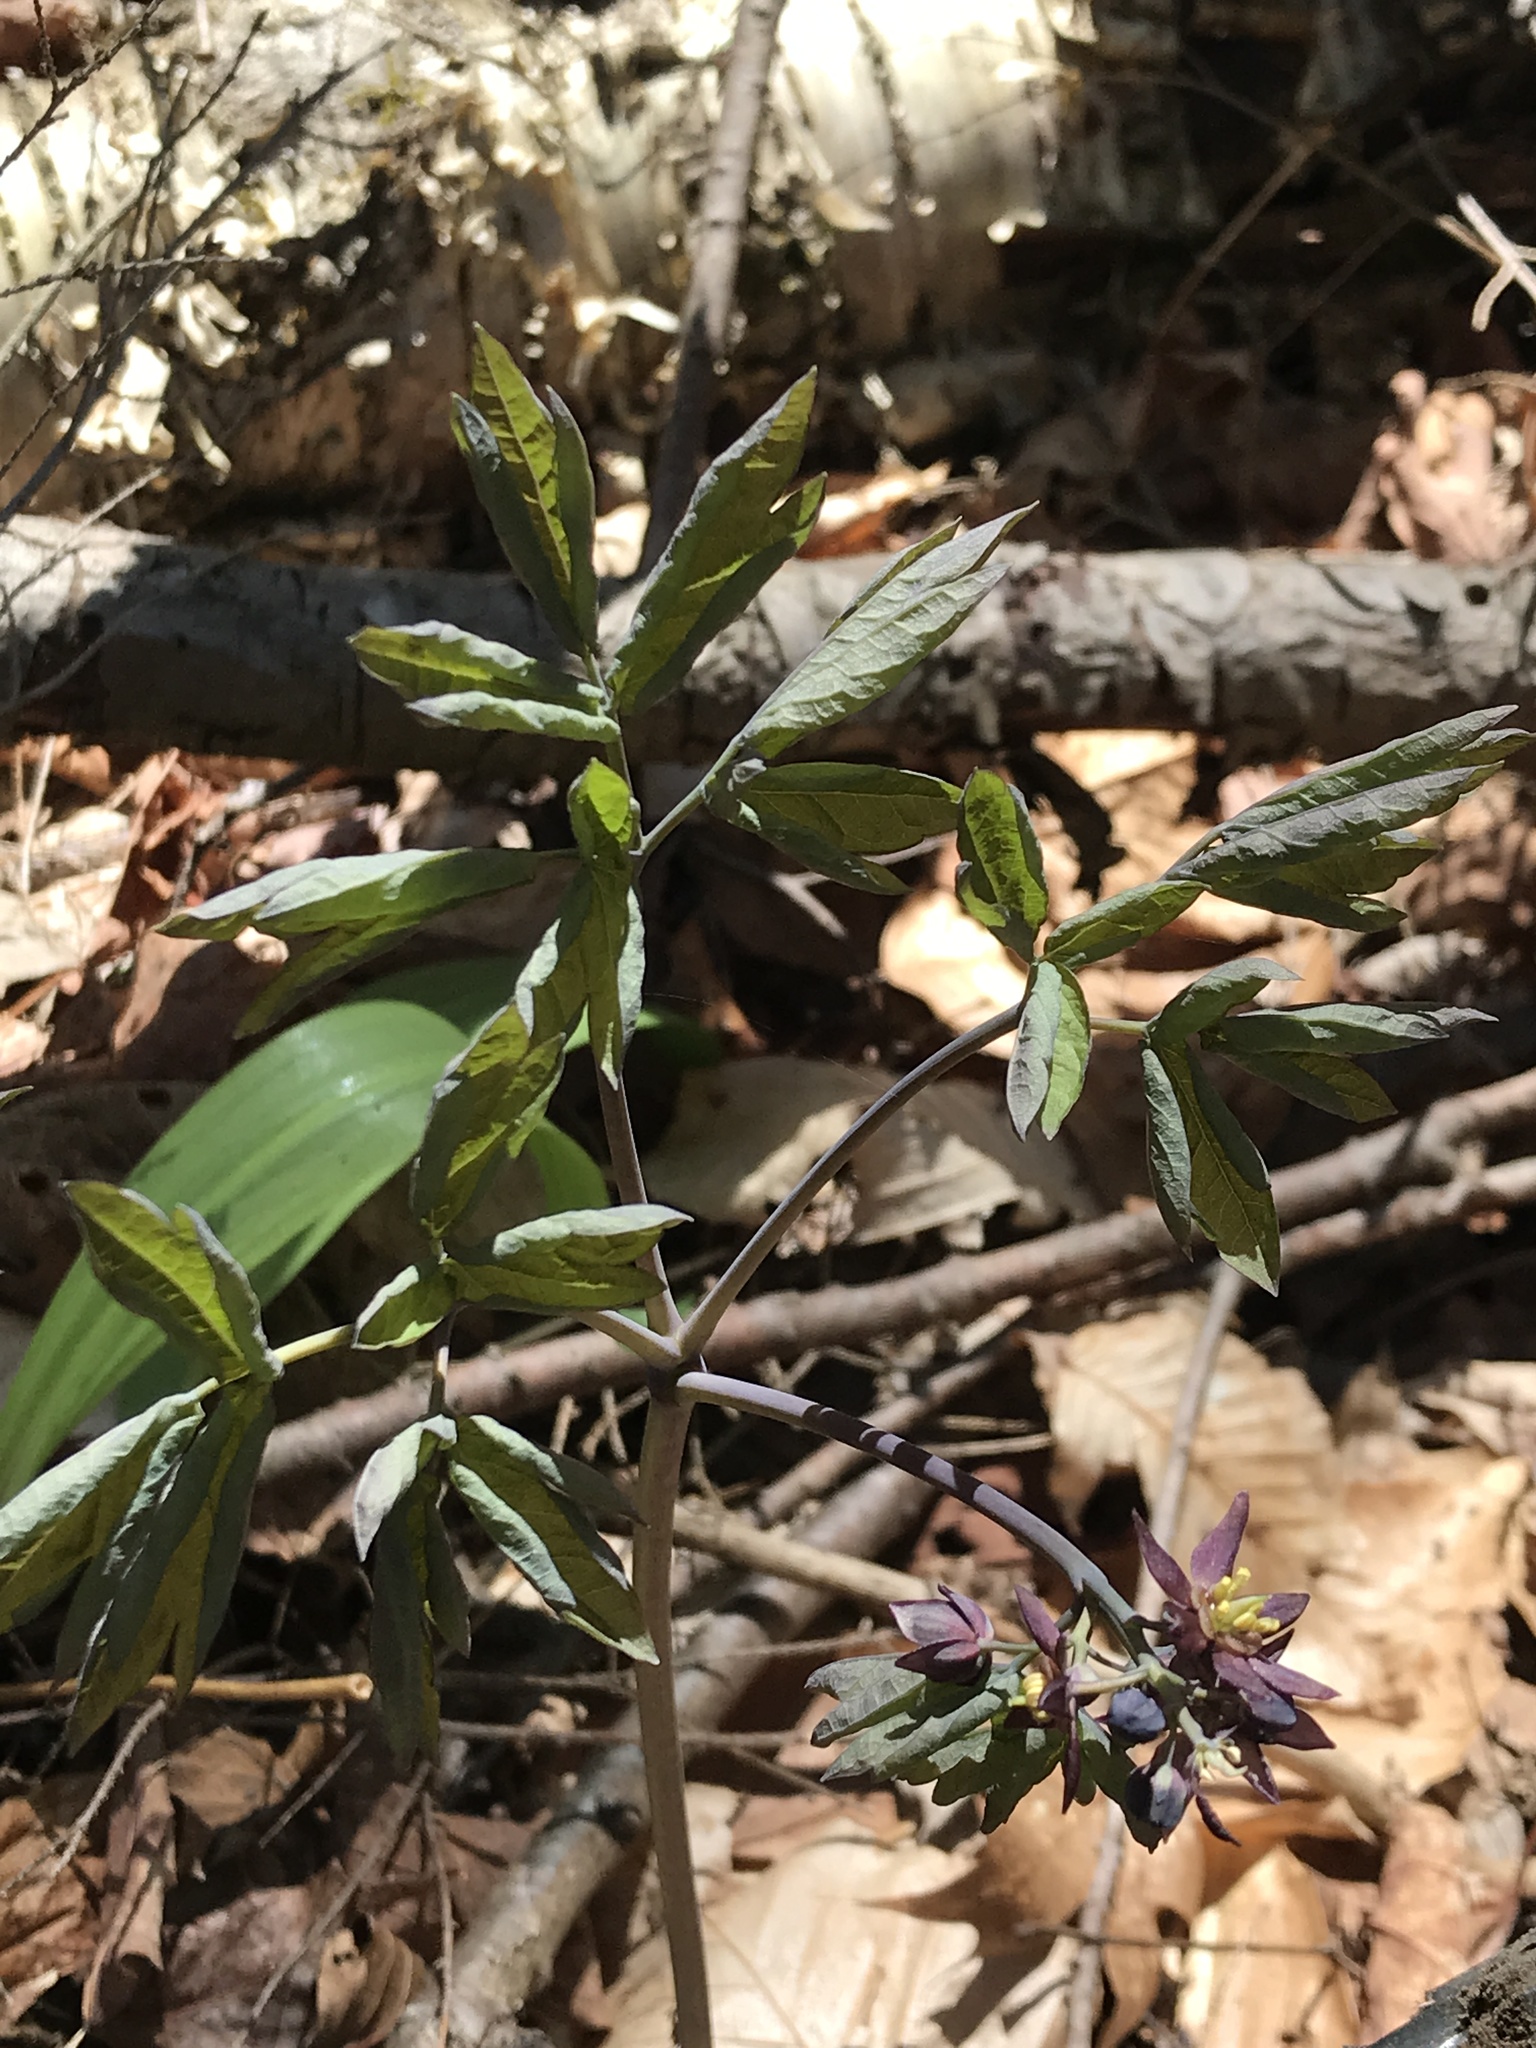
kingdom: Plantae
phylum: Tracheophyta
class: Magnoliopsida
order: Ranunculales
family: Berberidaceae
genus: Caulophyllum
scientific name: Caulophyllum giganteum
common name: Blue cohosh
